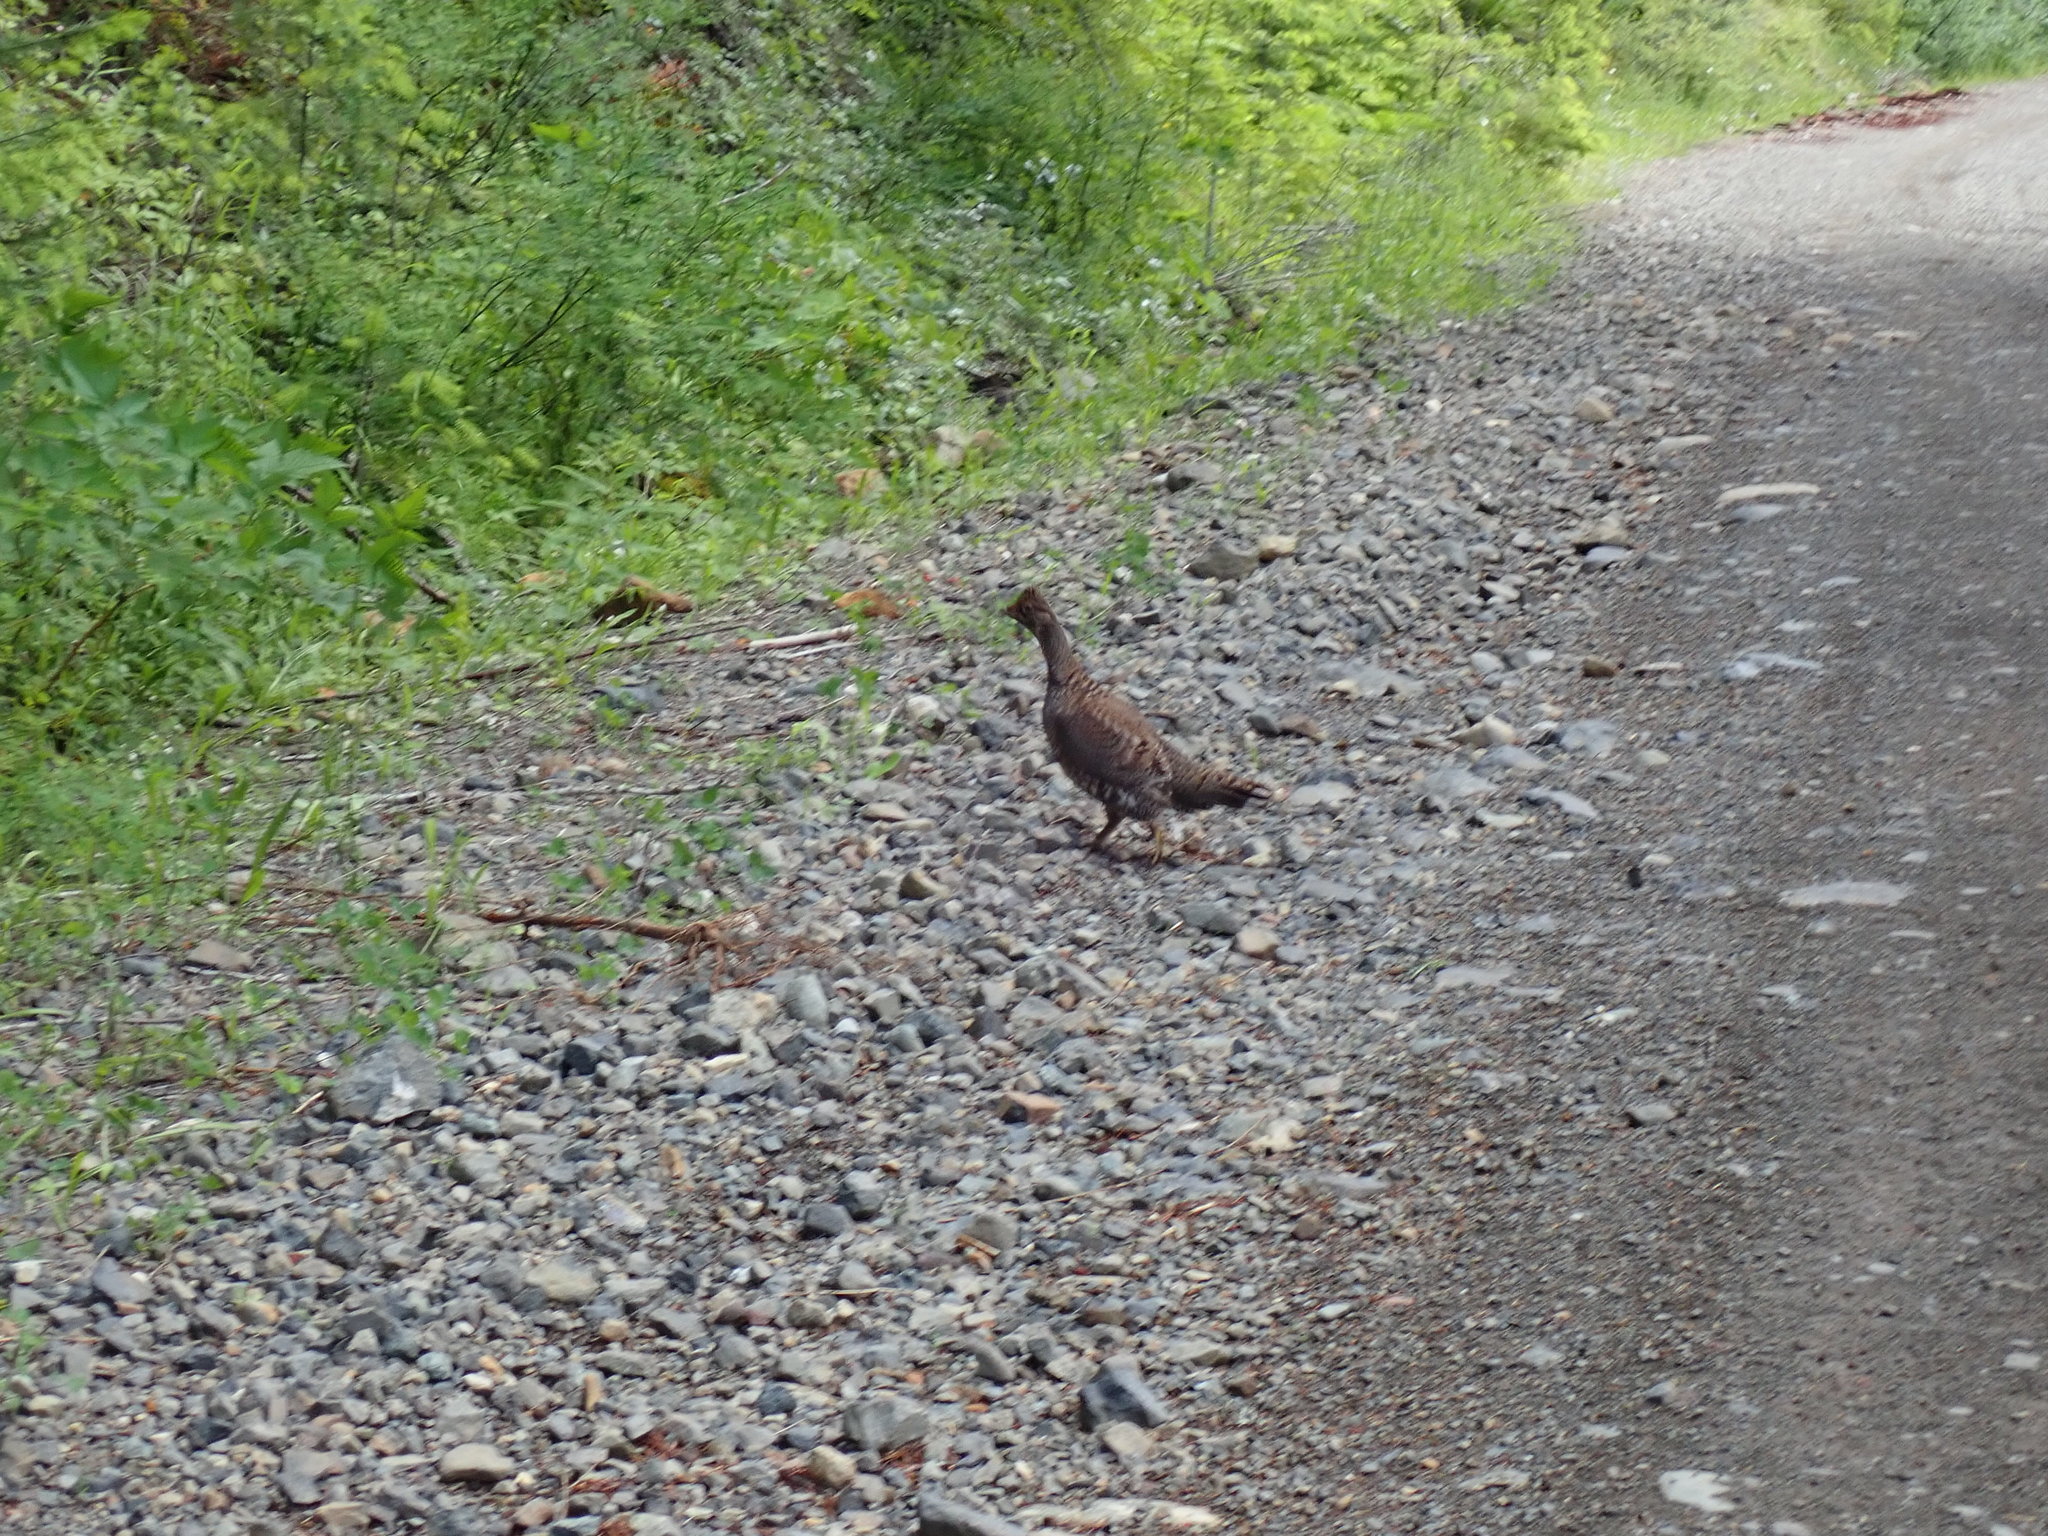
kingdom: Animalia
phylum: Chordata
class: Aves
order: Galliformes
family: Phasianidae
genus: Dendragapus
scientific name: Dendragapus fuliginosus
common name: Sooty grouse
